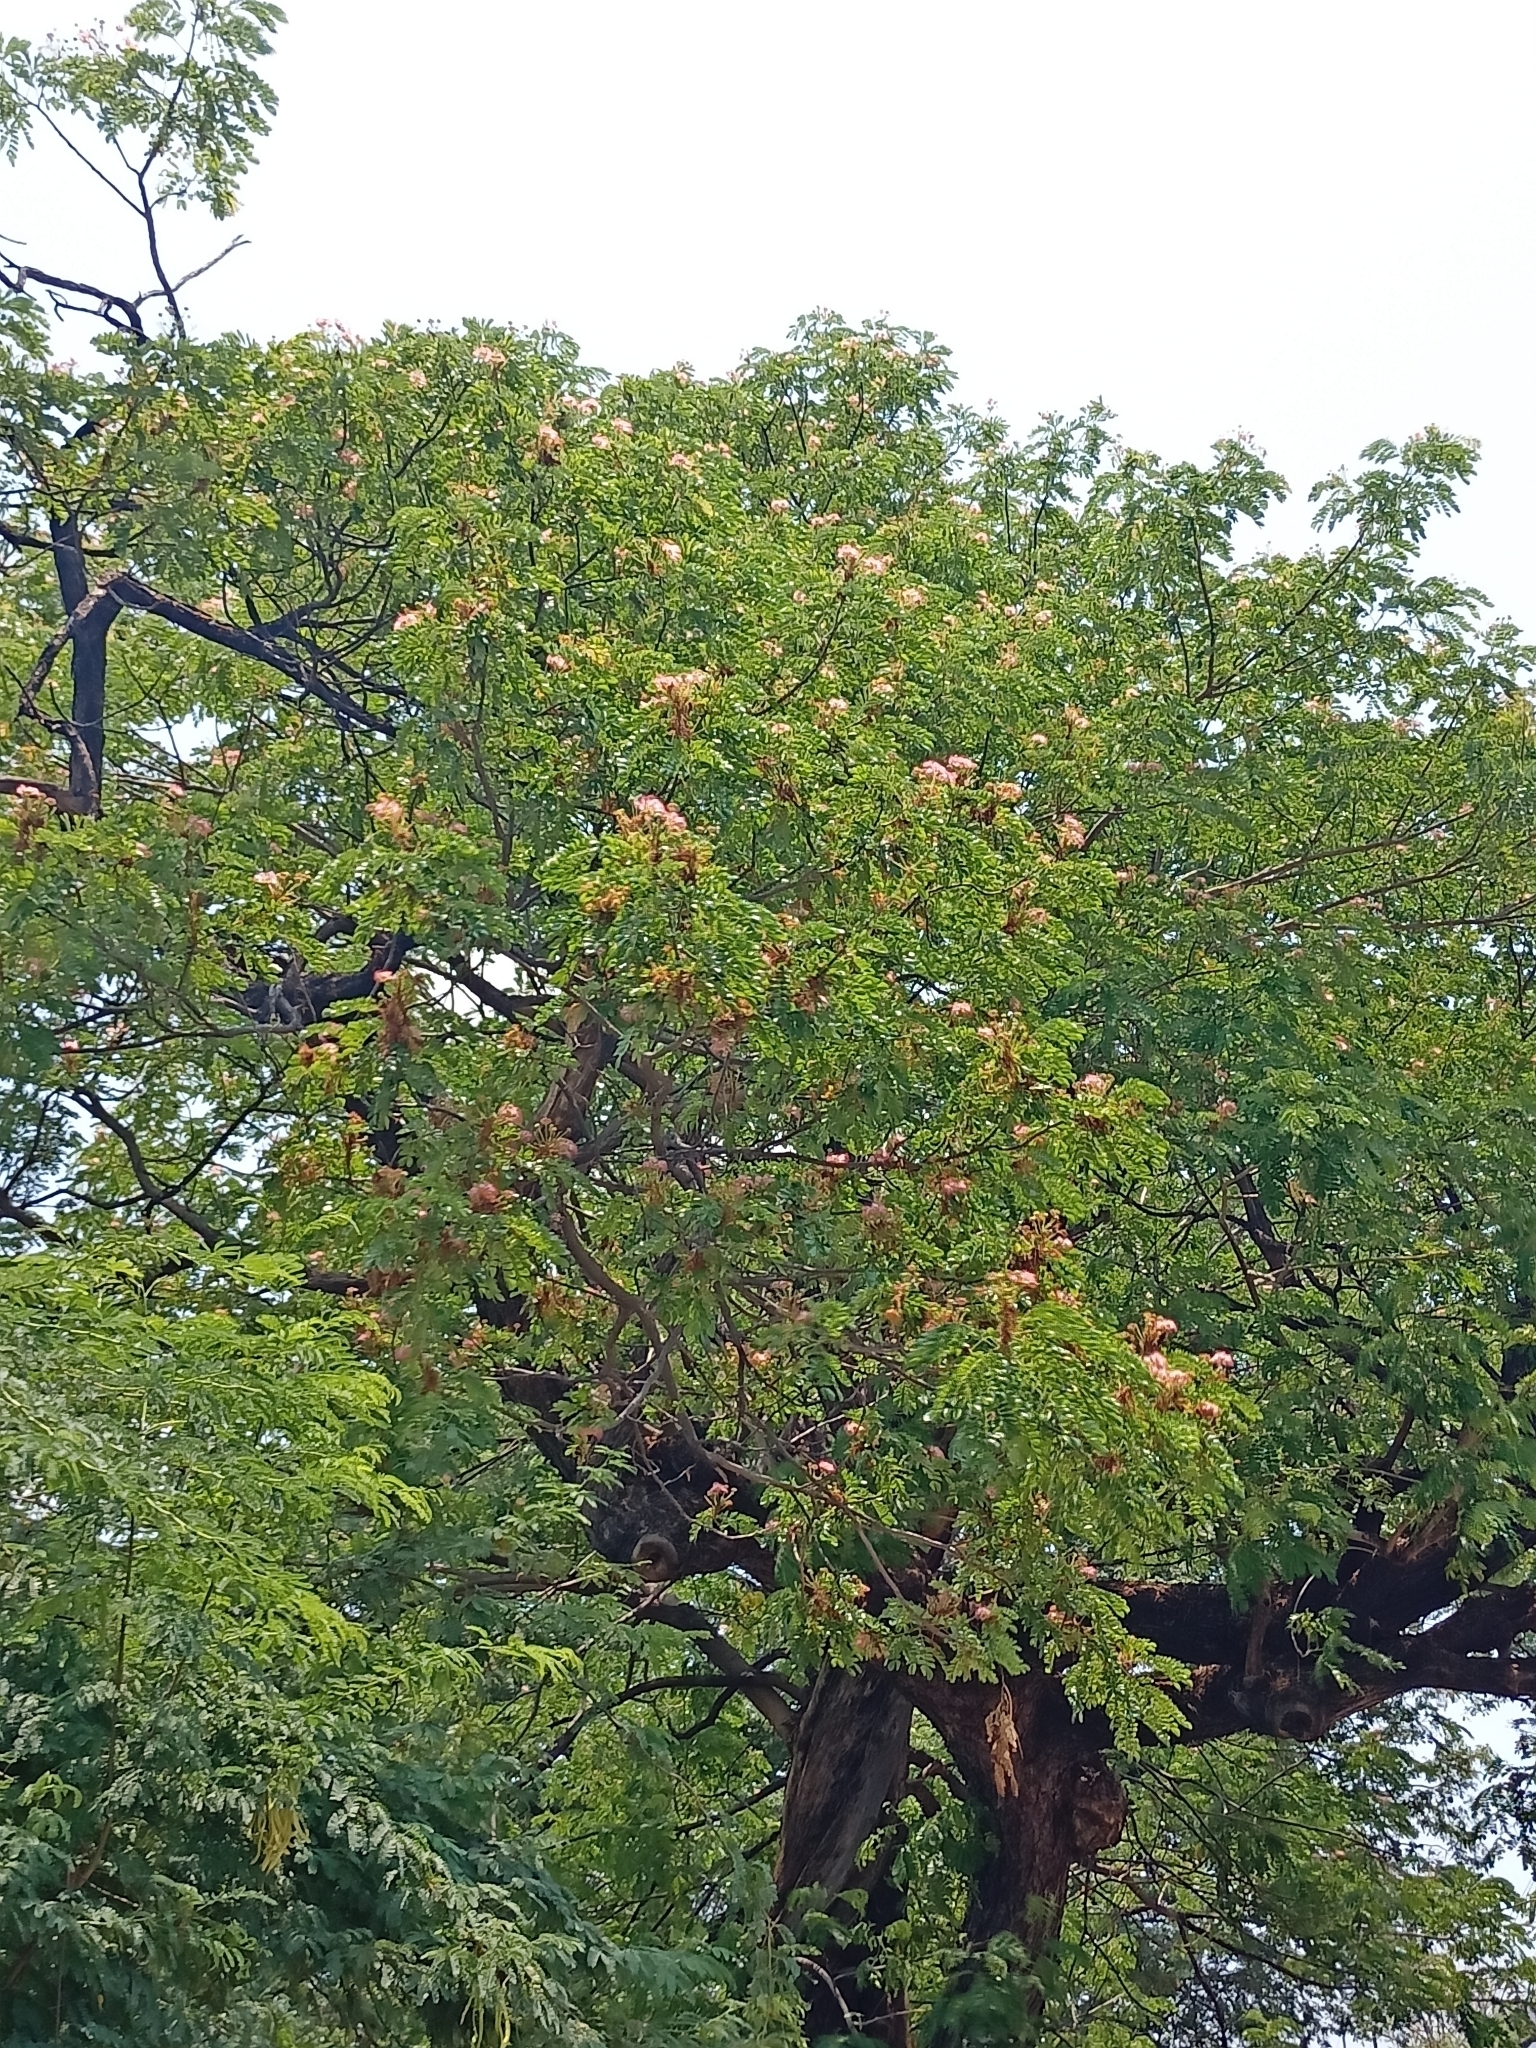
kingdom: Plantae
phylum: Tracheophyta
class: Magnoliopsida
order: Fabales
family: Fabaceae
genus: Samanea
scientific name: Samanea saman
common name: Raintree
